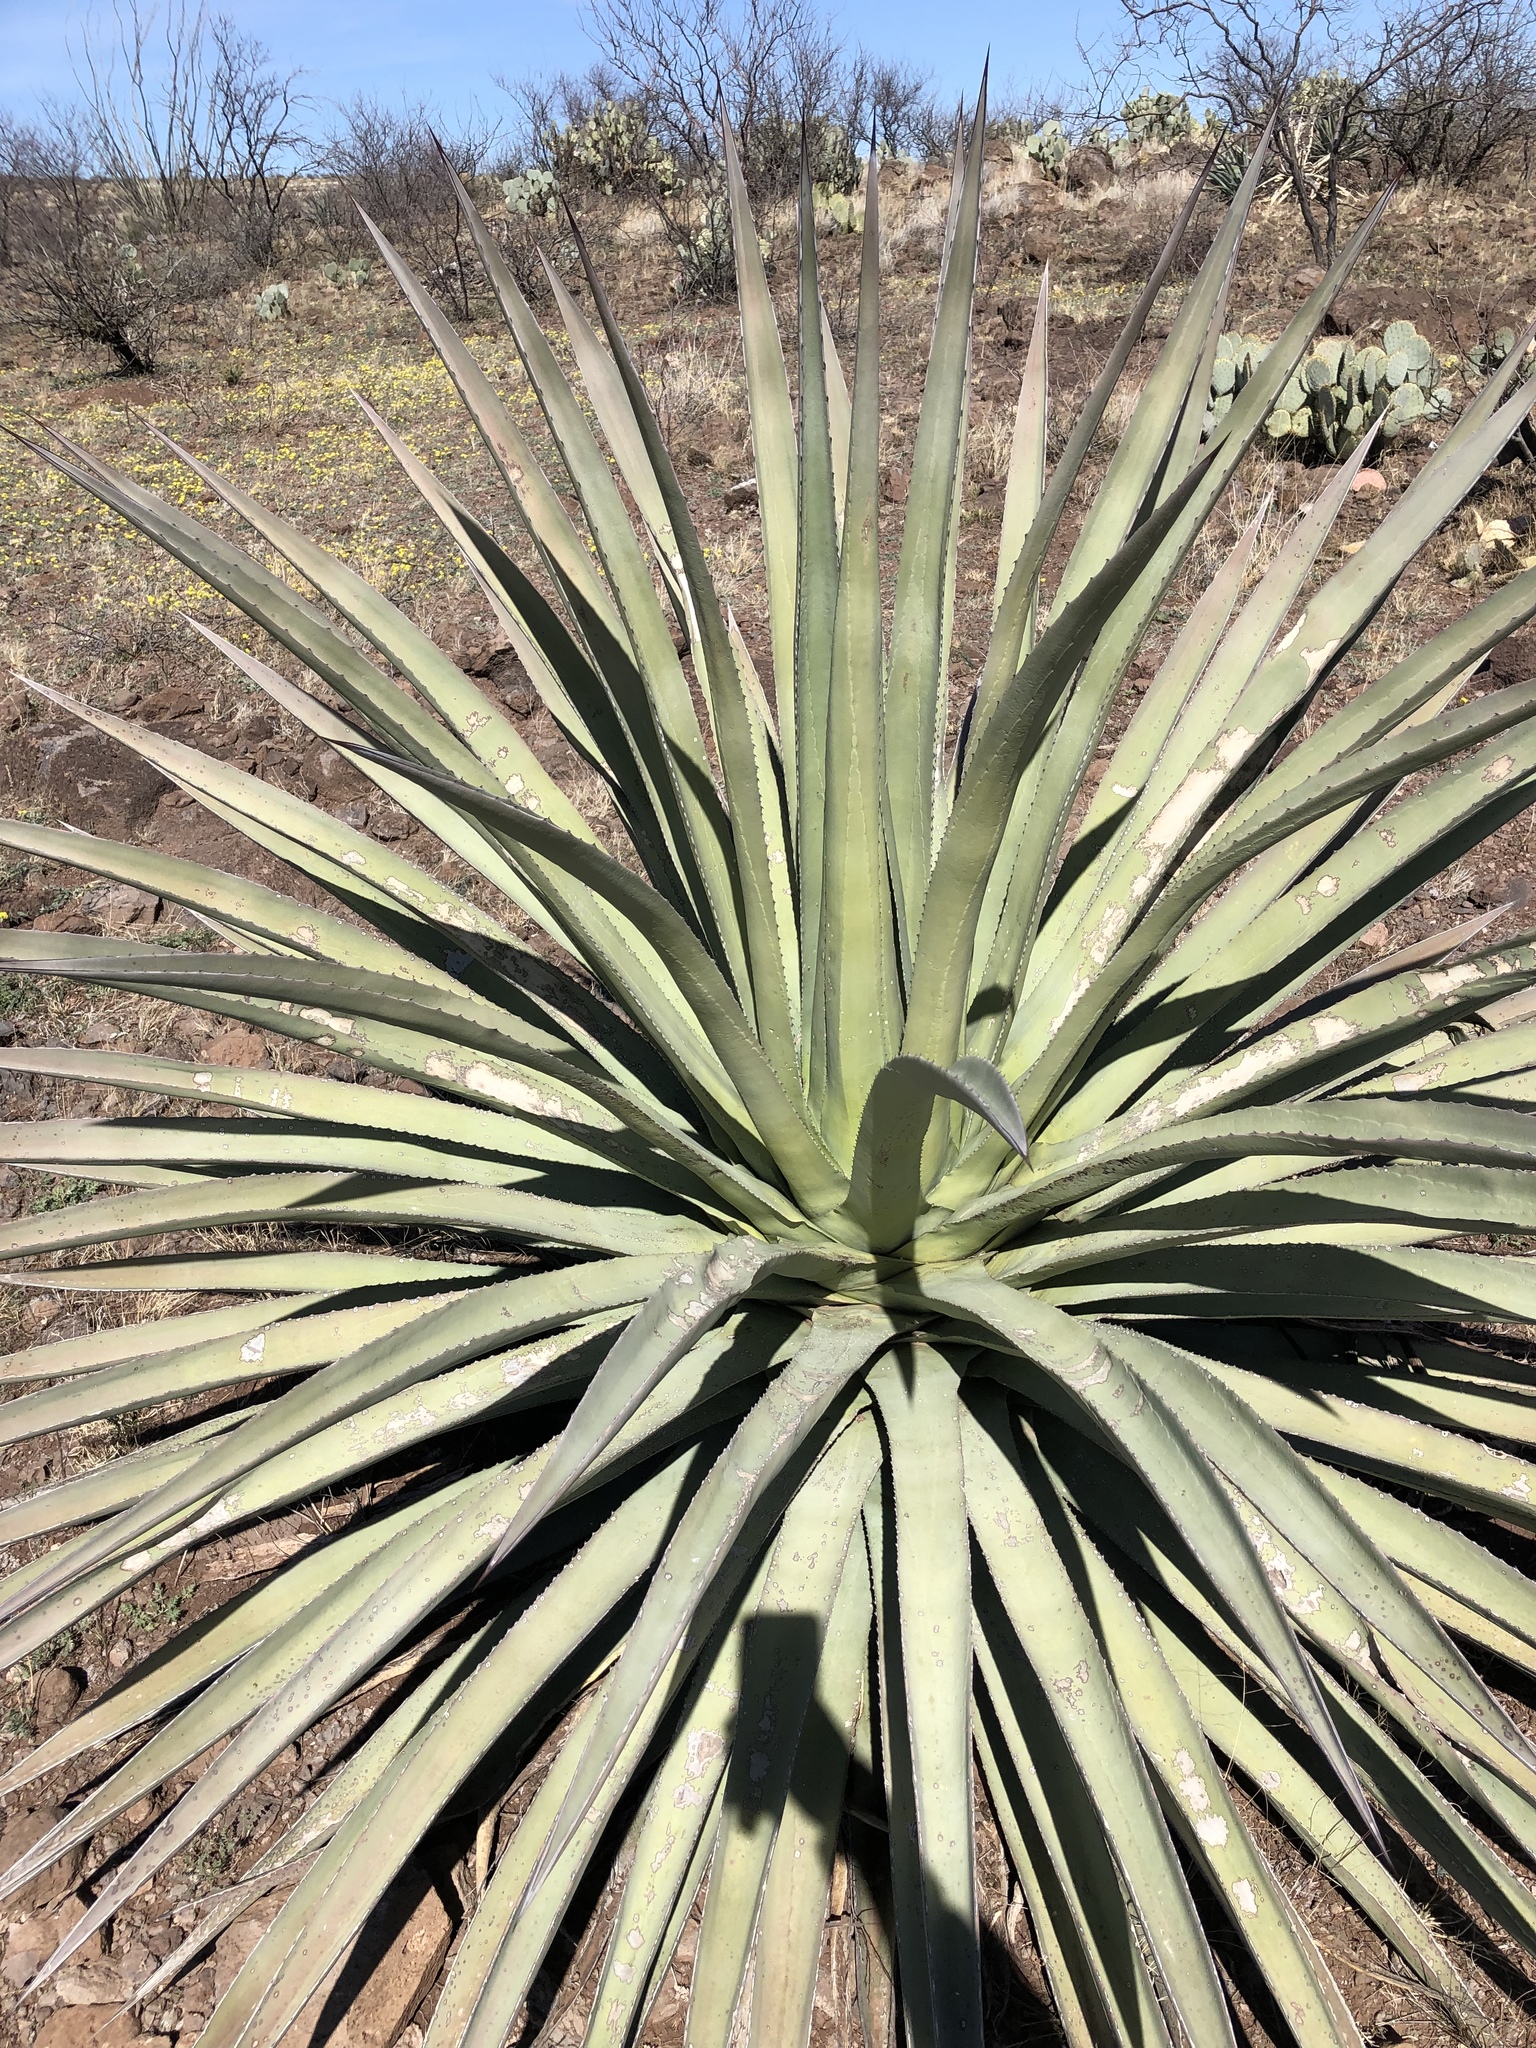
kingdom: Plantae
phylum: Tracheophyta
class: Liliopsida
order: Asparagales
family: Asparagaceae
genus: Agave
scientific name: Agave palmeri
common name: Palmer agave
